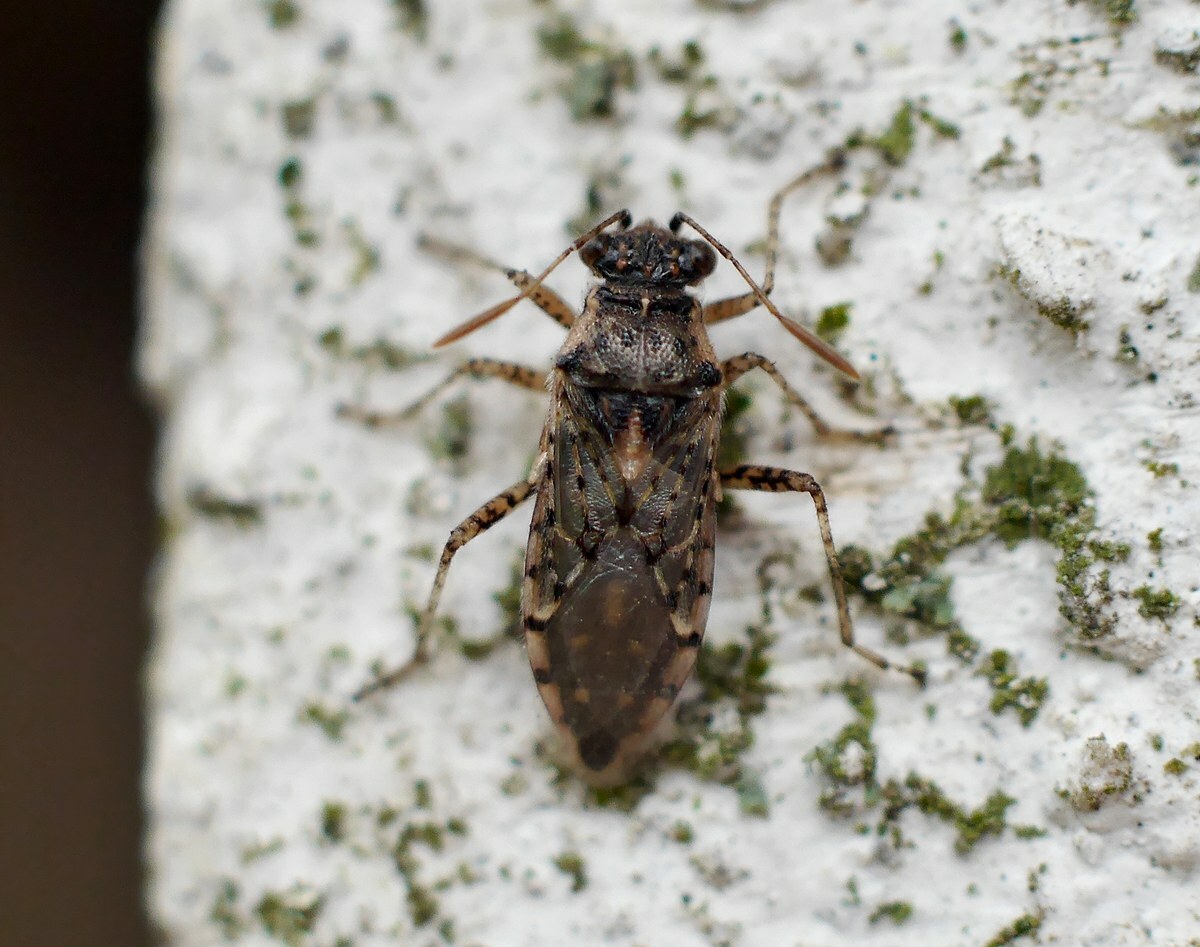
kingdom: Animalia
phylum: Arthropoda
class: Insecta
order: Hemiptera
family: Rhopalidae
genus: Brachycarenus
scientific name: Brachycarenus tigrinus
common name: Scentless plant bug
